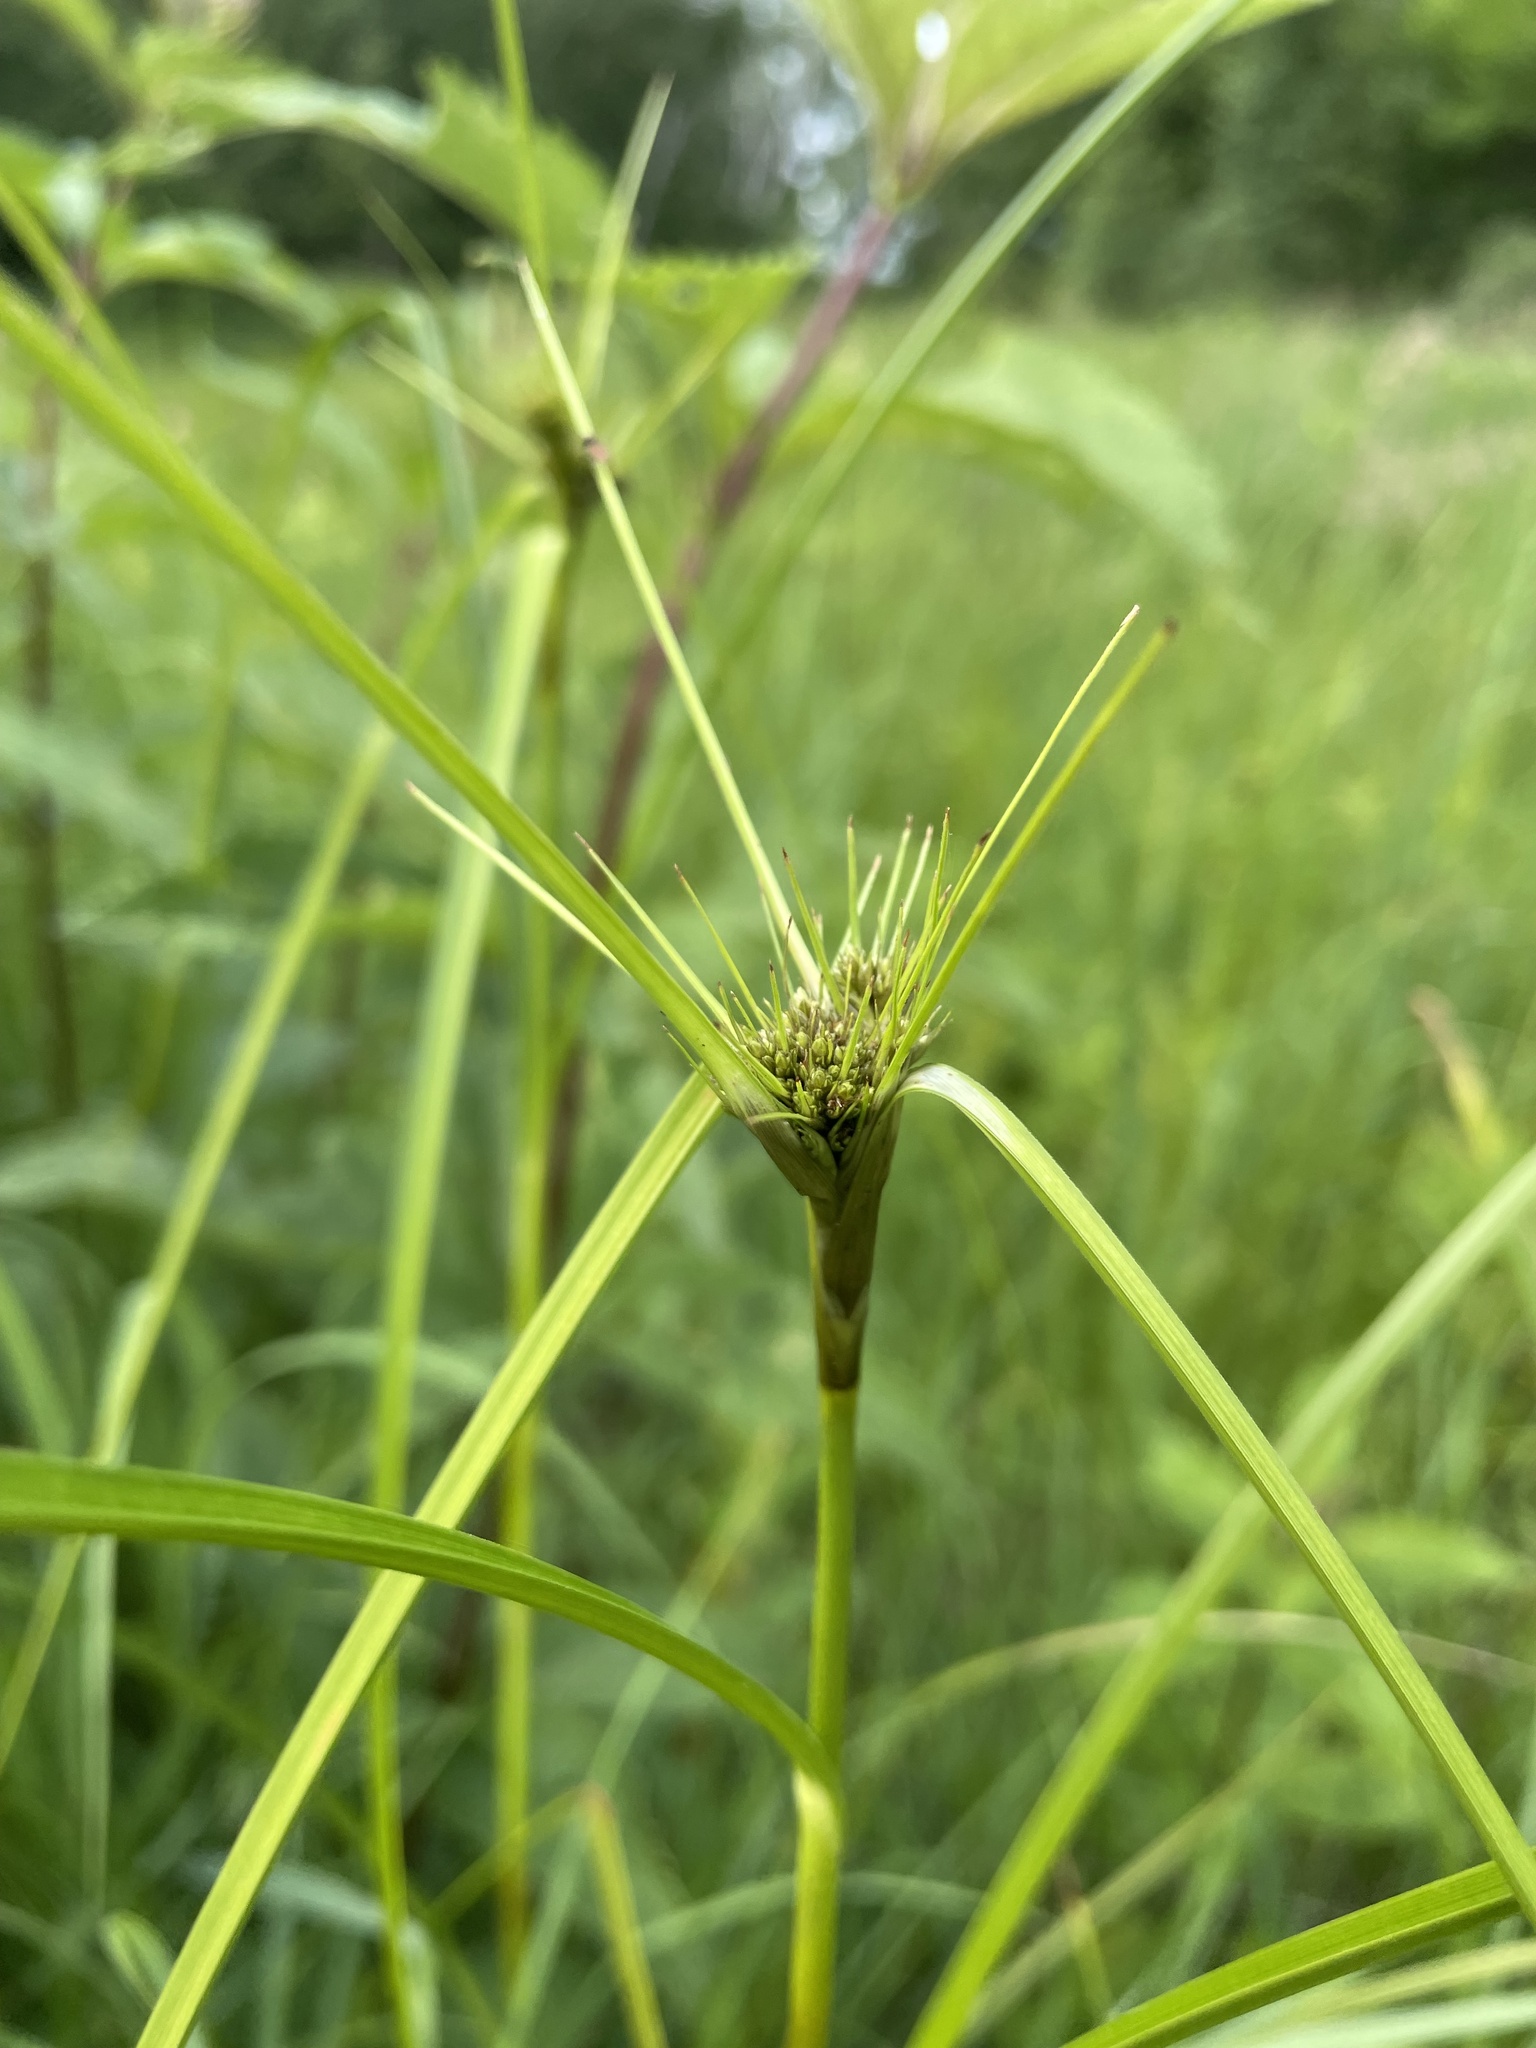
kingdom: Plantae
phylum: Tracheophyta
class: Liliopsida
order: Poales
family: Cyperaceae
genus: Scirpus
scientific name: Scirpus atrocinctus
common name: Black-girdled bulrush
